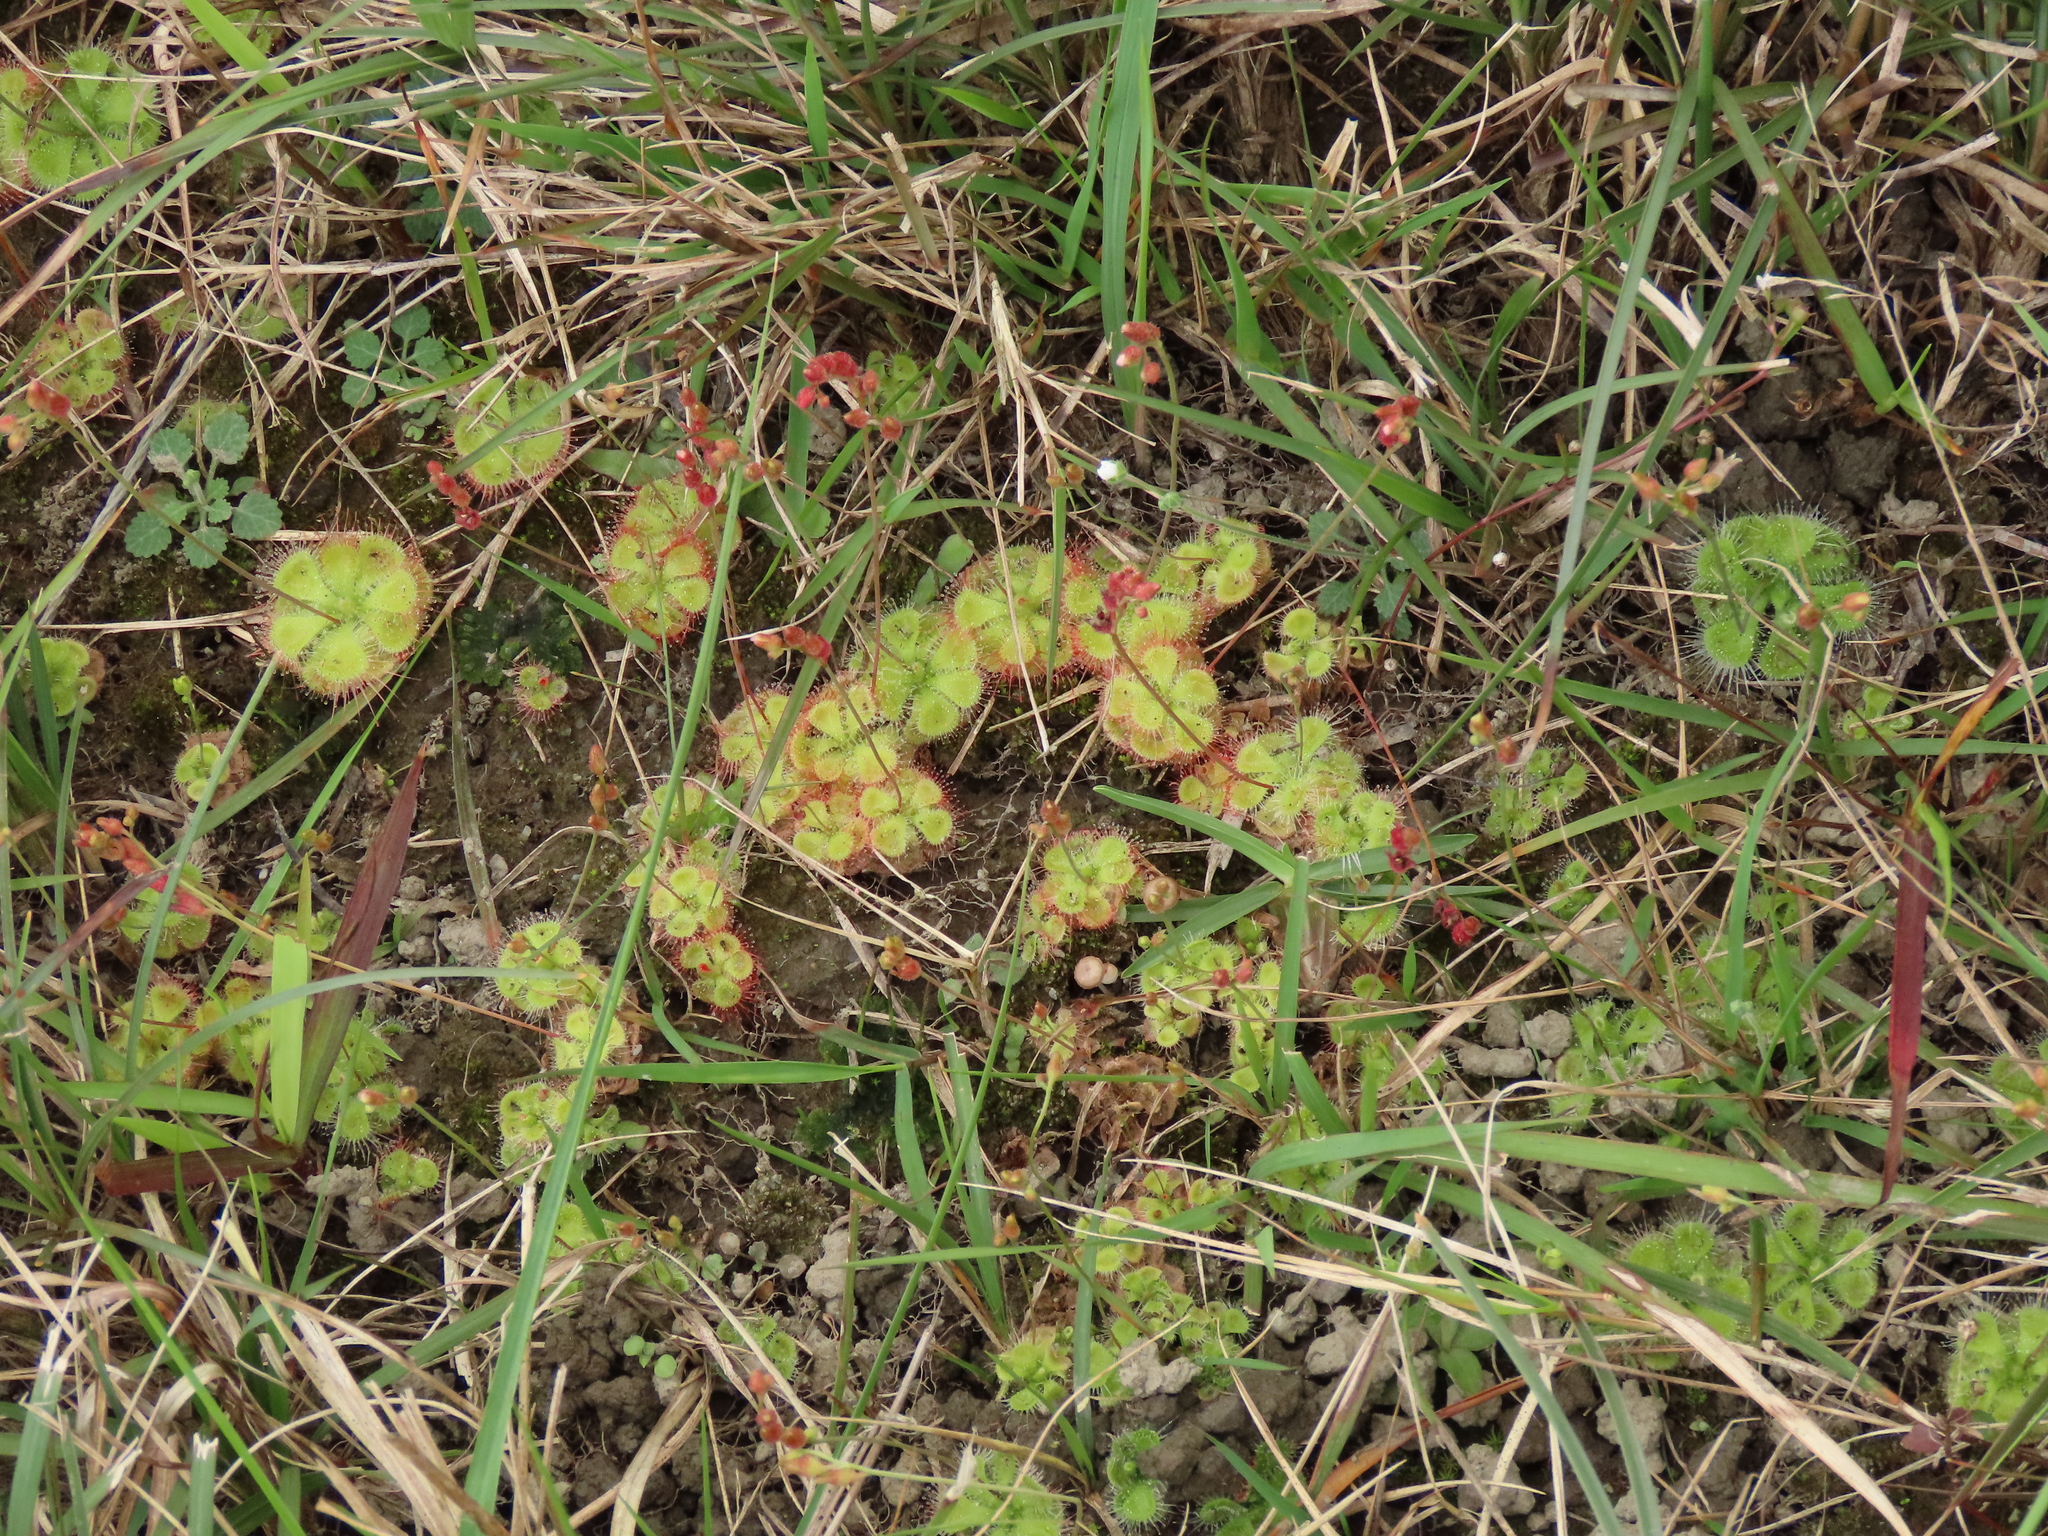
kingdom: Plantae
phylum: Tracheophyta
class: Magnoliopsida
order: Caryophyllales
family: Droseraceae
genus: Drosera
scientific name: Drosera spatulata
